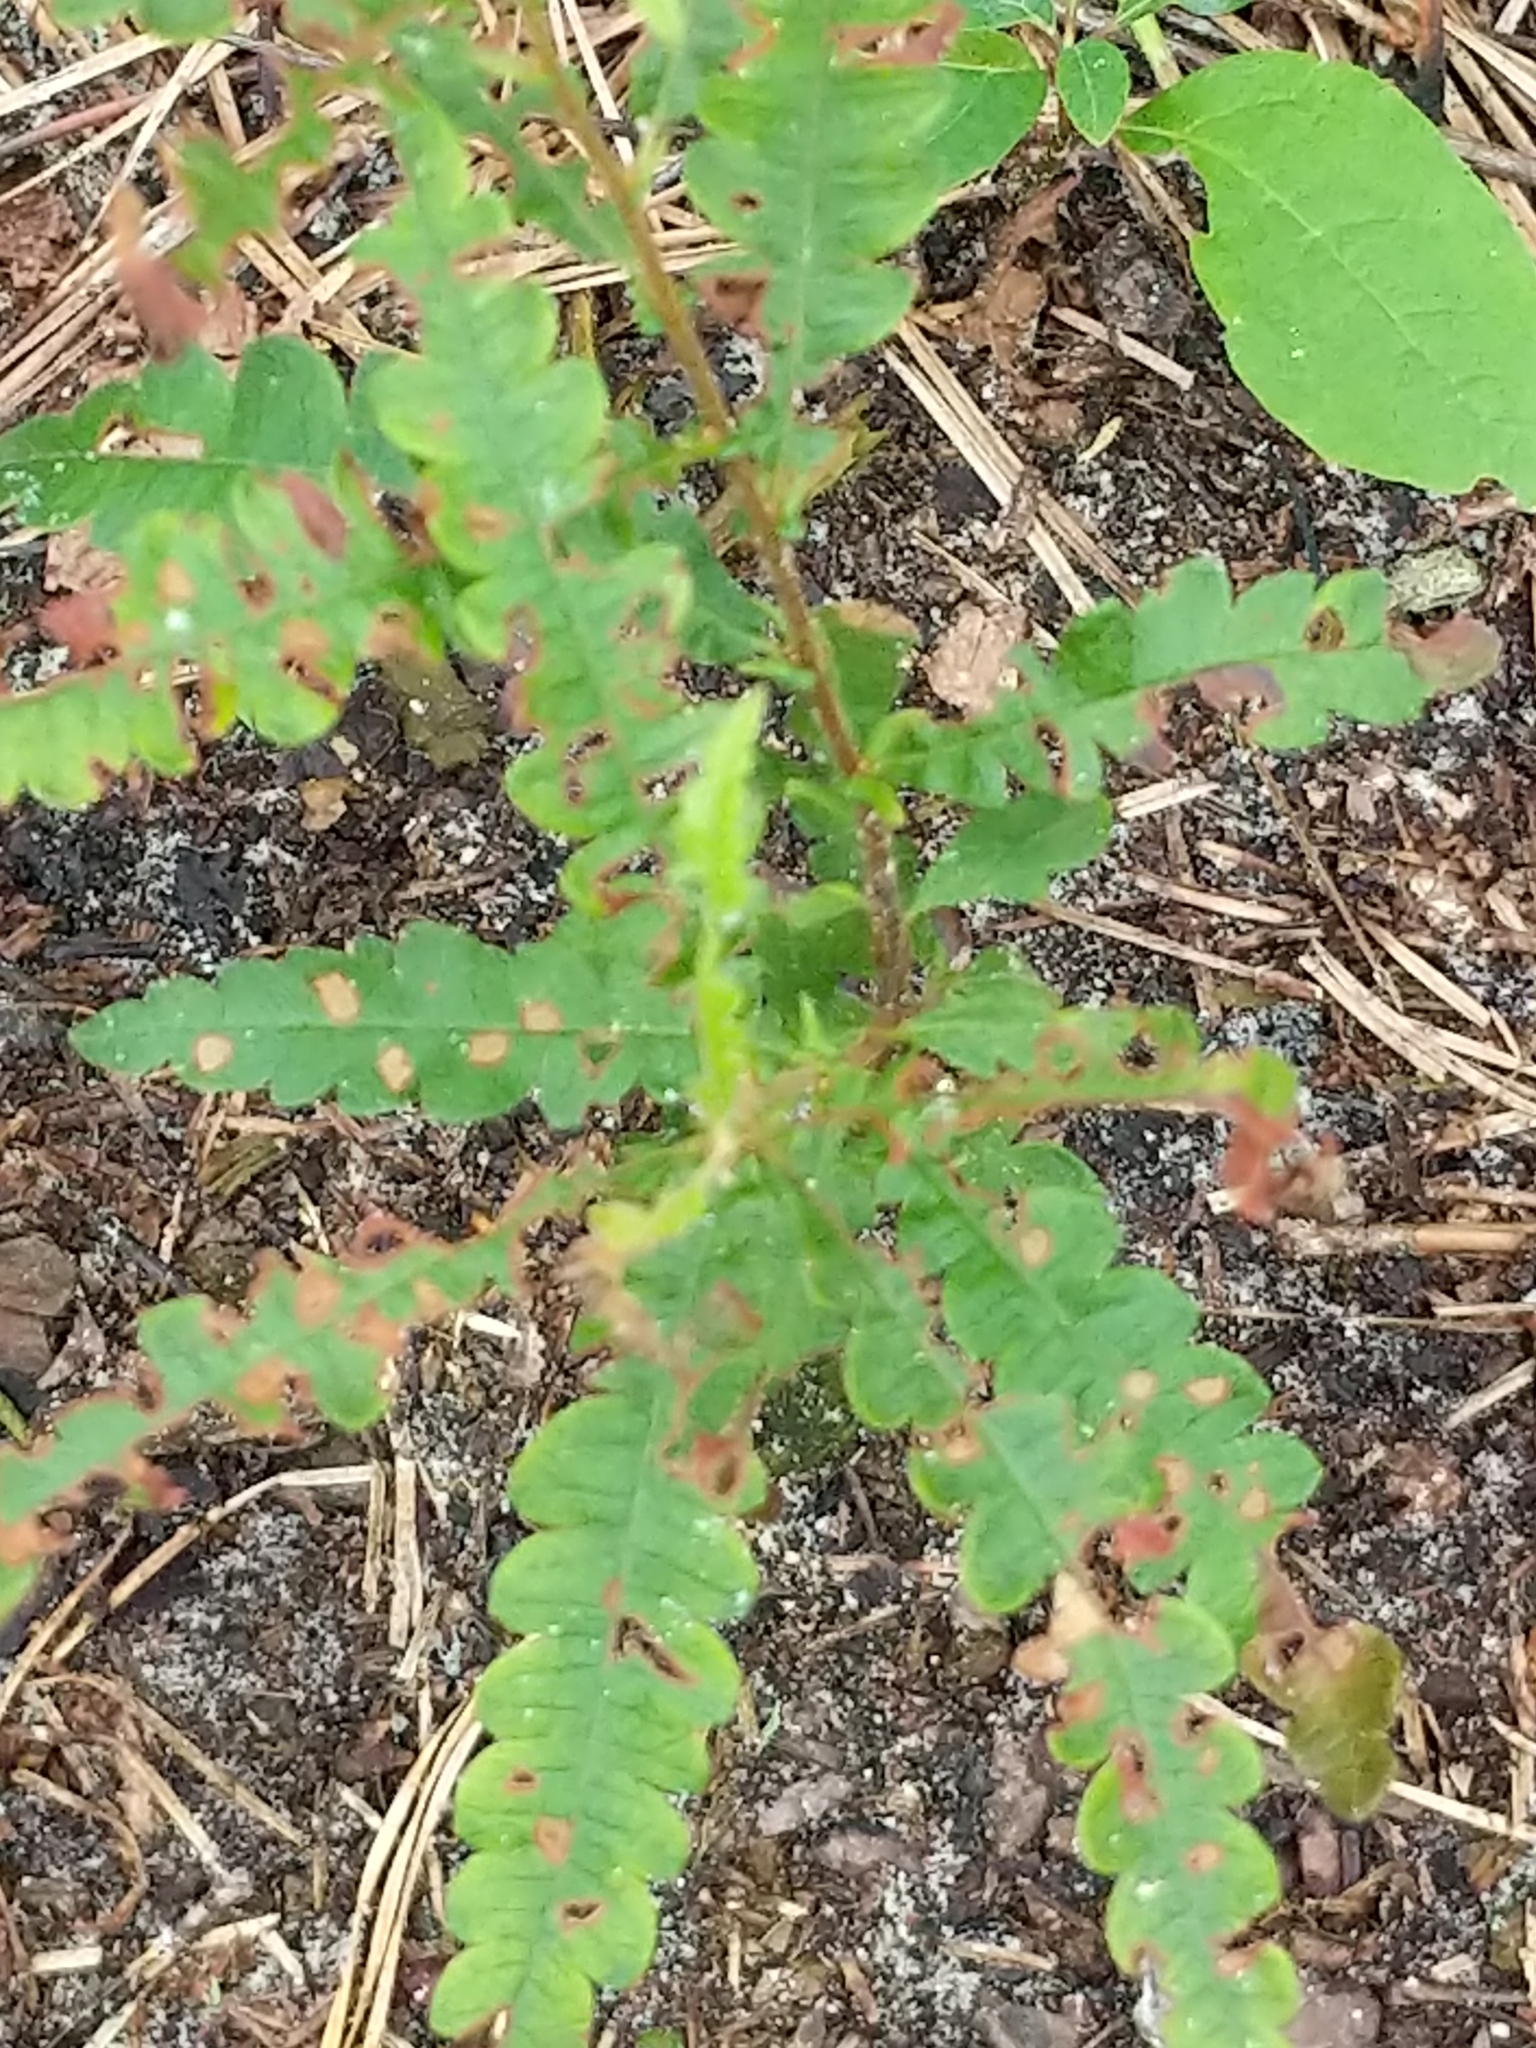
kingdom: Plantae
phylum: Tracheophyta
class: Magnoliopsida
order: Fagales
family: Myricaceae
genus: Comptonia
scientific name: Comptonia peregrina
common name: Sweet-fern
